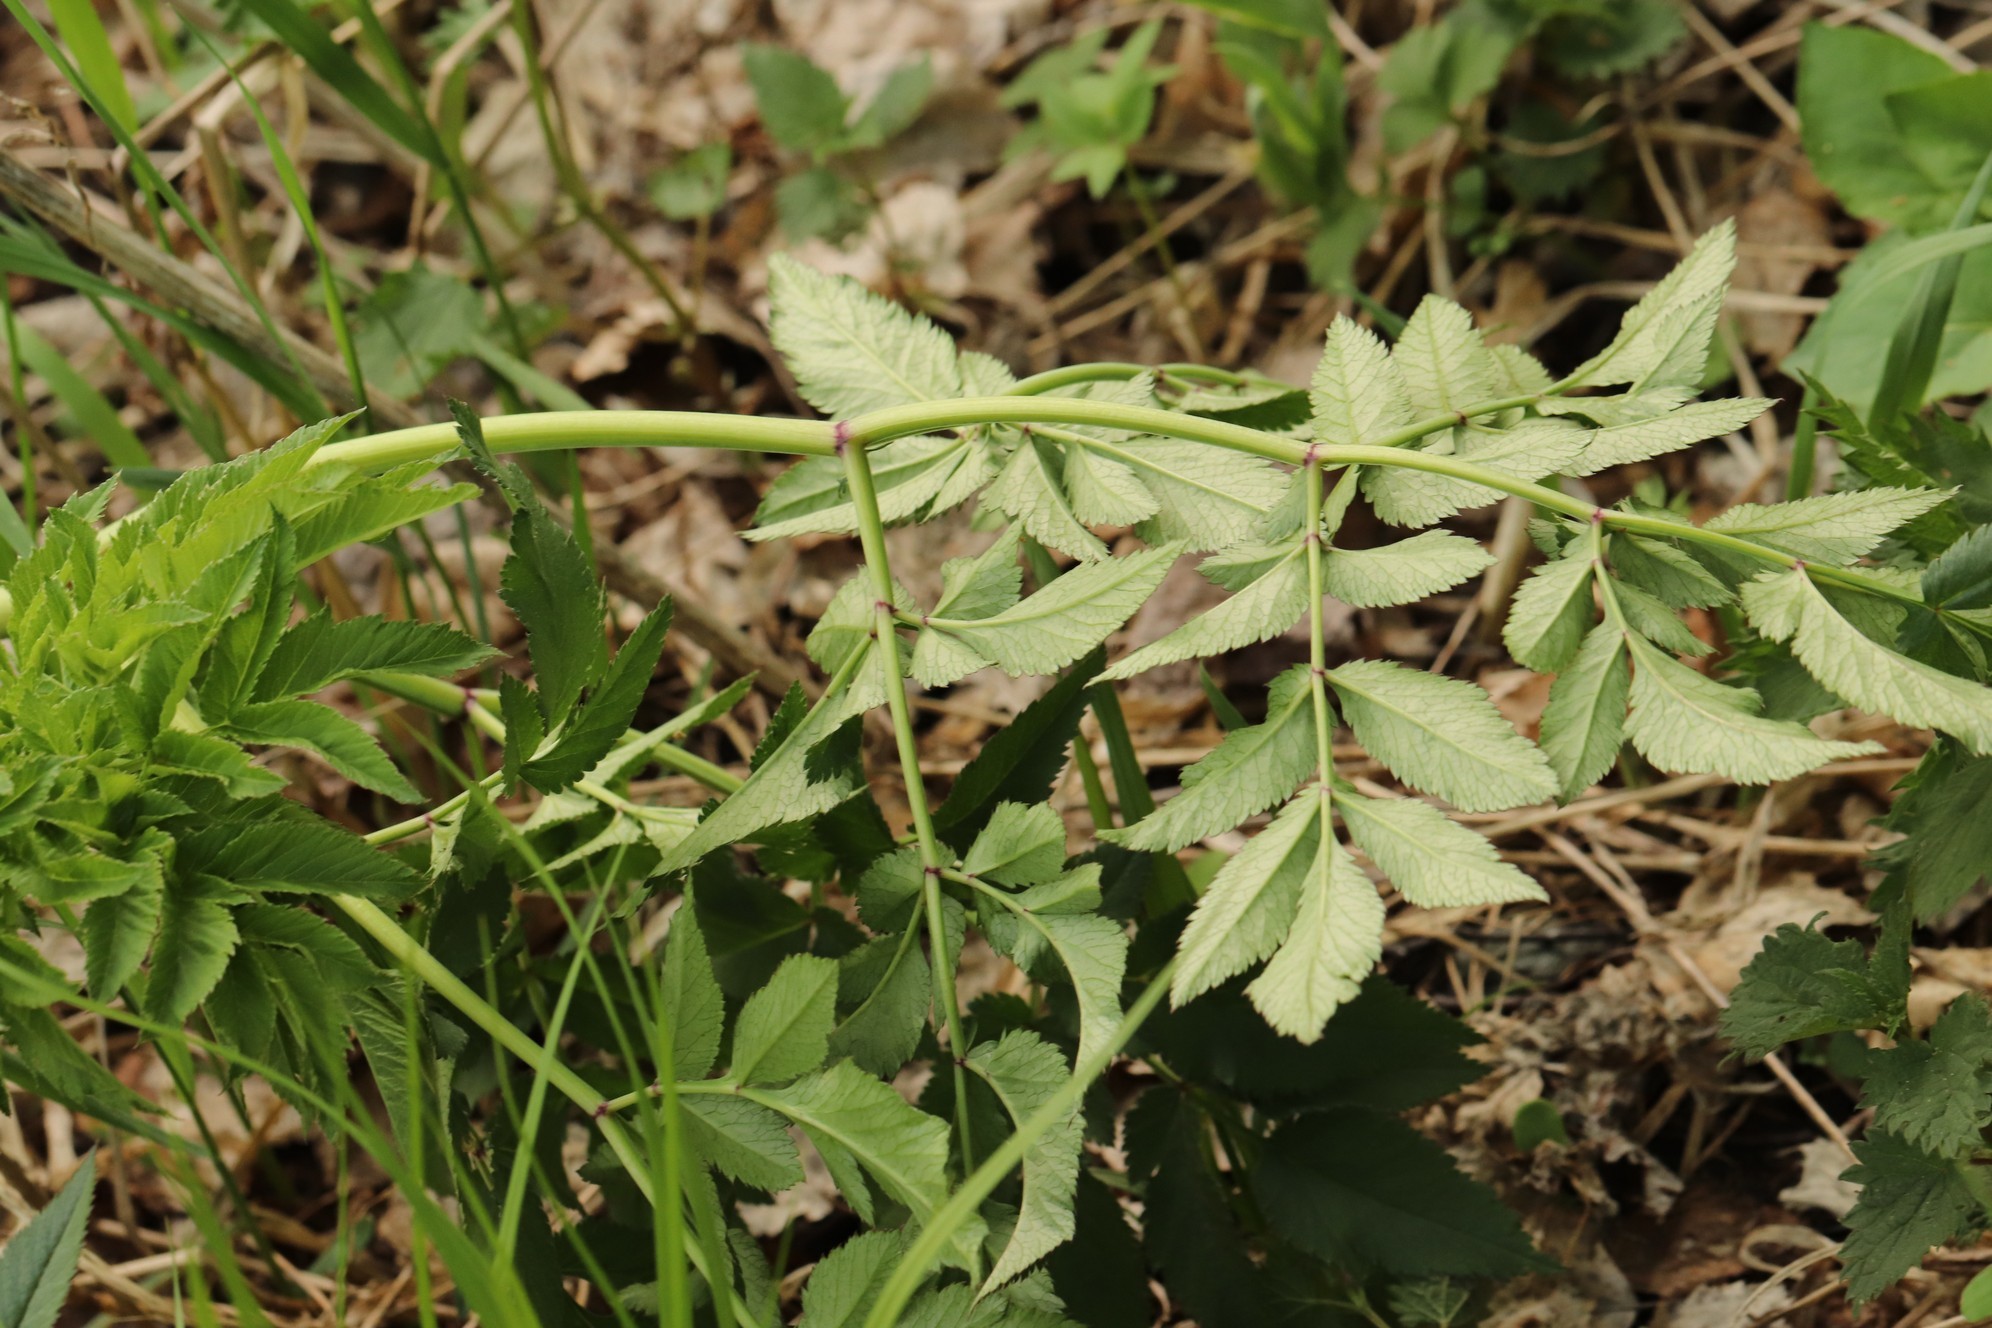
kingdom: Plantae
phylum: Tracheophyta
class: Magnoliopsida
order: Apiales
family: Apiaceae
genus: Angelica
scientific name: Angelica sylvestris
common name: Wild angelica
